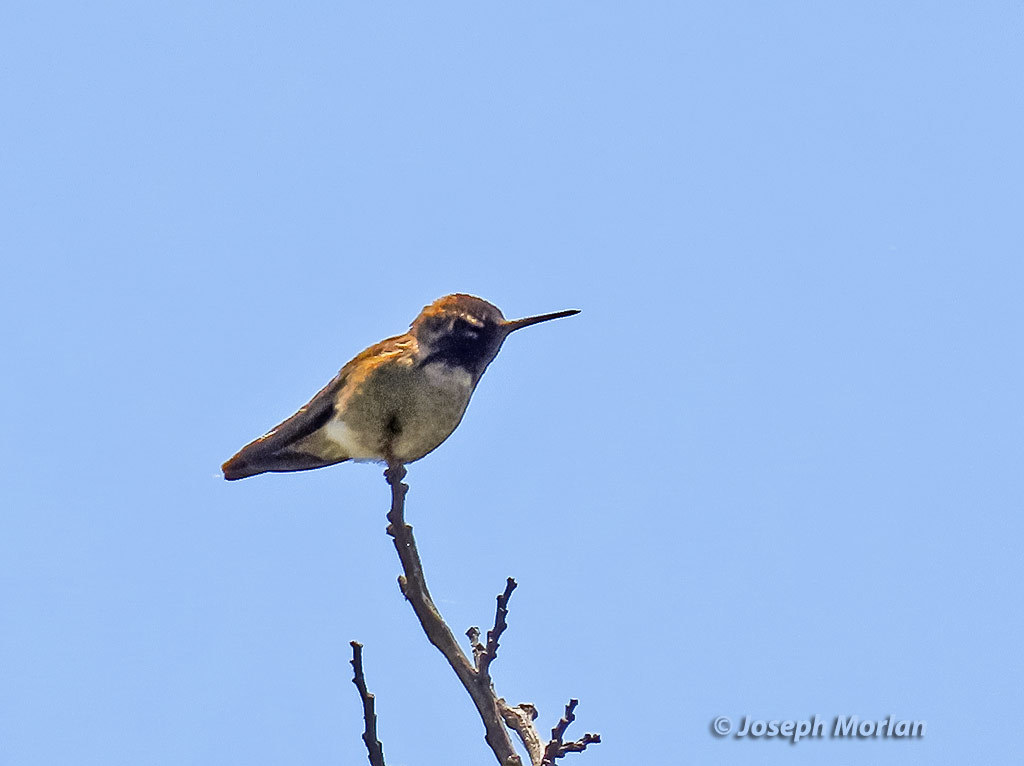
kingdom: Animalia
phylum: Chordata
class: Aves
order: Apodiformes
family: Trochilidae
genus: Calypte
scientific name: Calypte anna
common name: Anna's hummingbird
